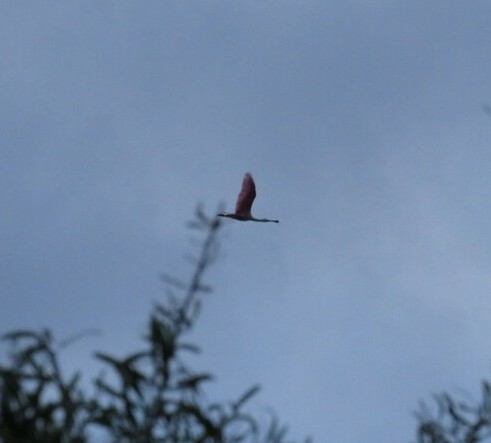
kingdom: Animalia
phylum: Chordata
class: Aves
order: Pelecaniformes
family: Threskiornithidae
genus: Platalea
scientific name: Platalea ajaja
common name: Roseate spoonbill
